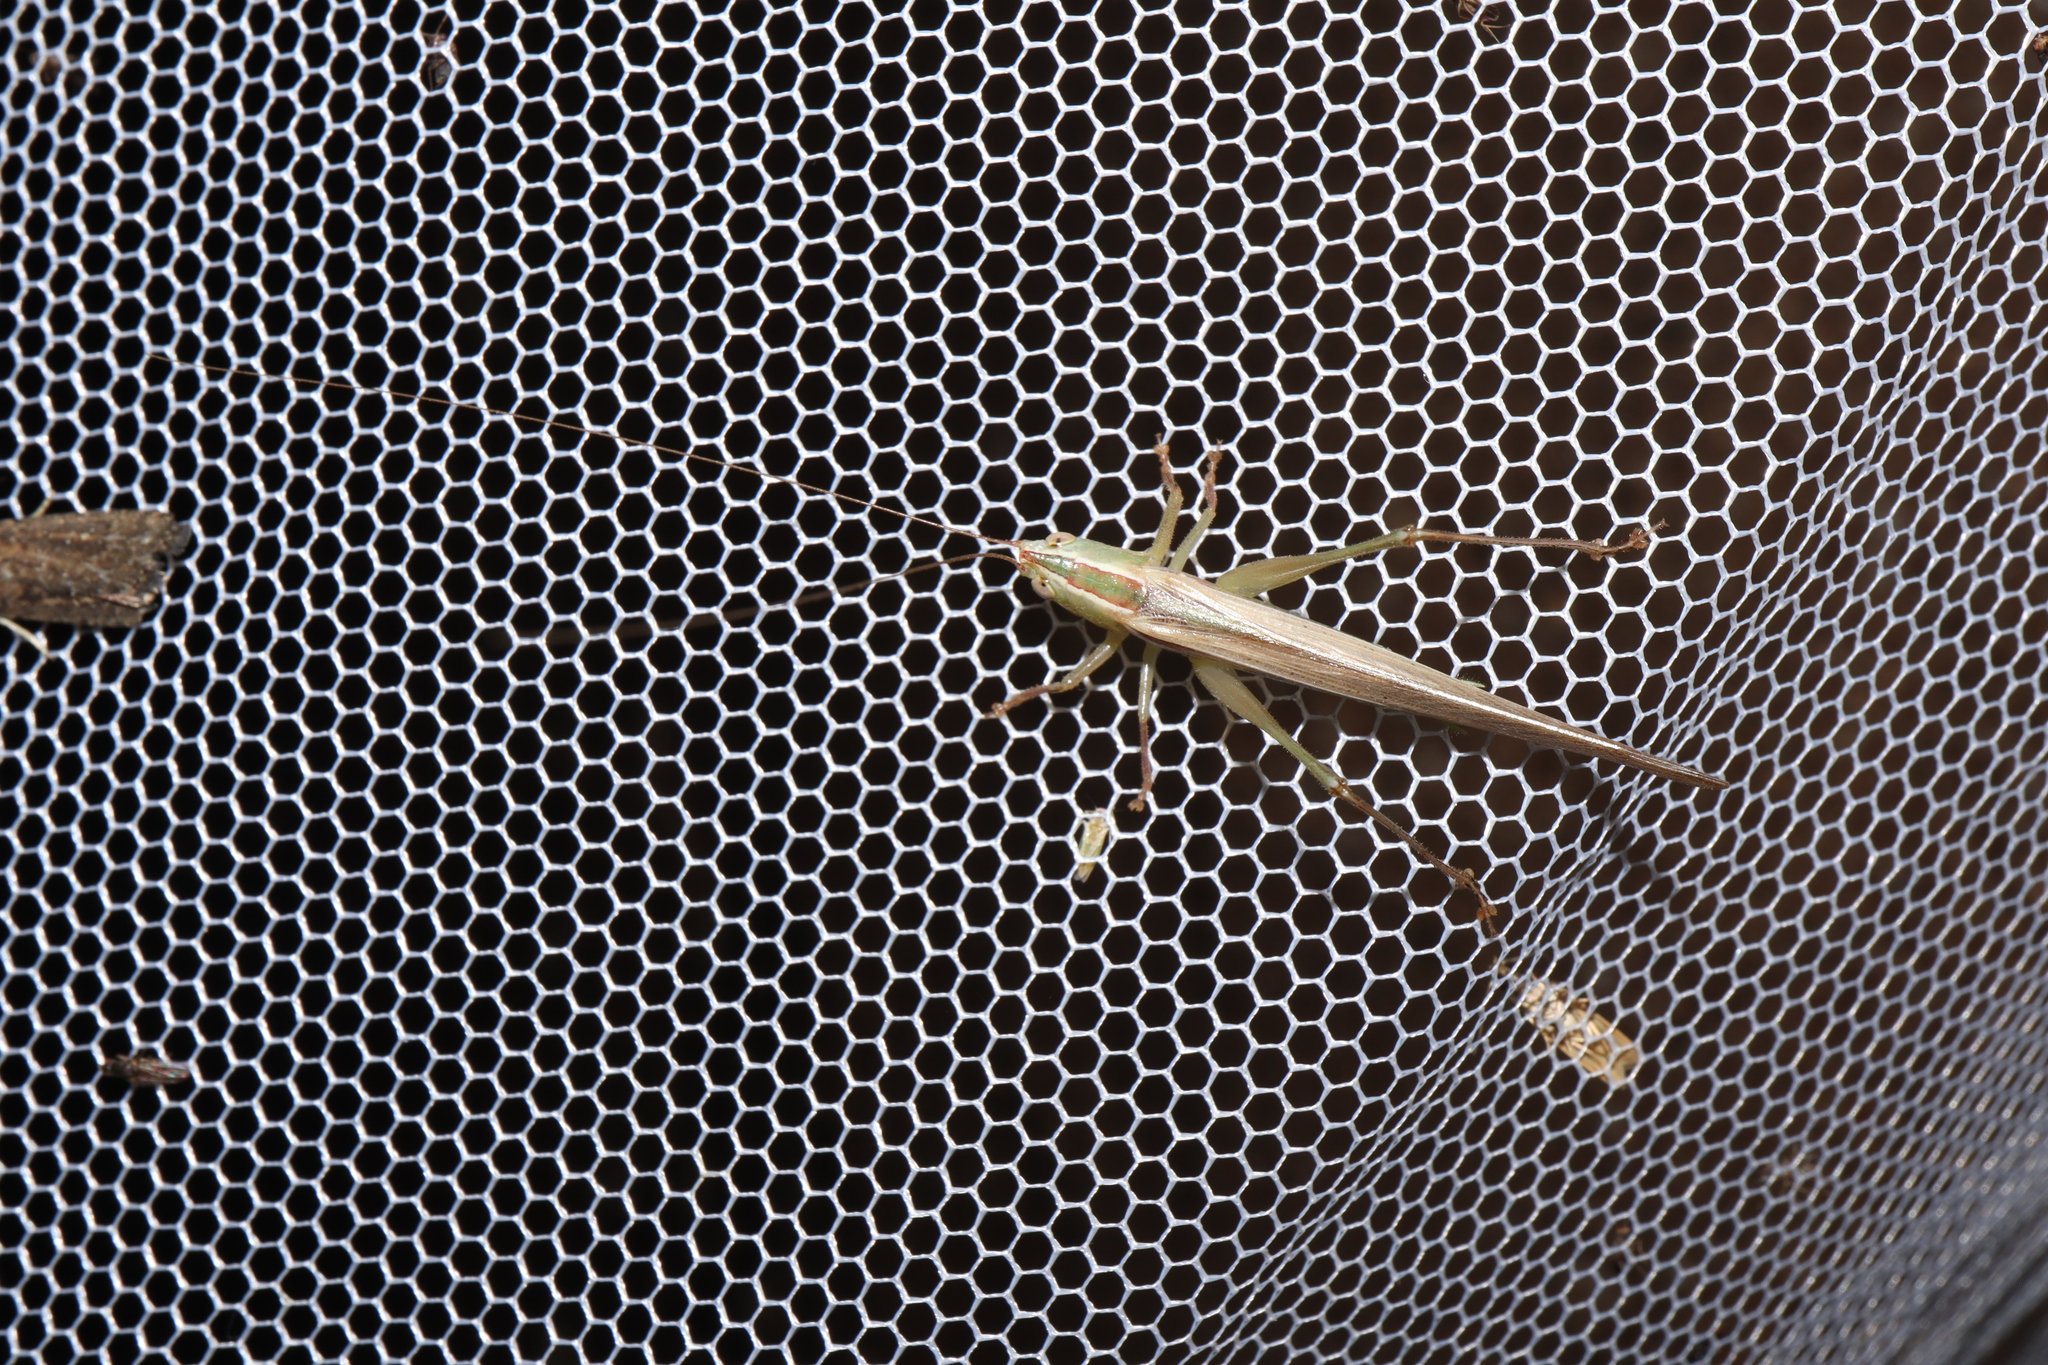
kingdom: Animalia
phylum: Arthropoda
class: Insecta
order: Orthoptera
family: Tettigoniidae
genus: Conocephalus
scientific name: Conocephalus upoluensis
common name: Upolu meadow katydid
